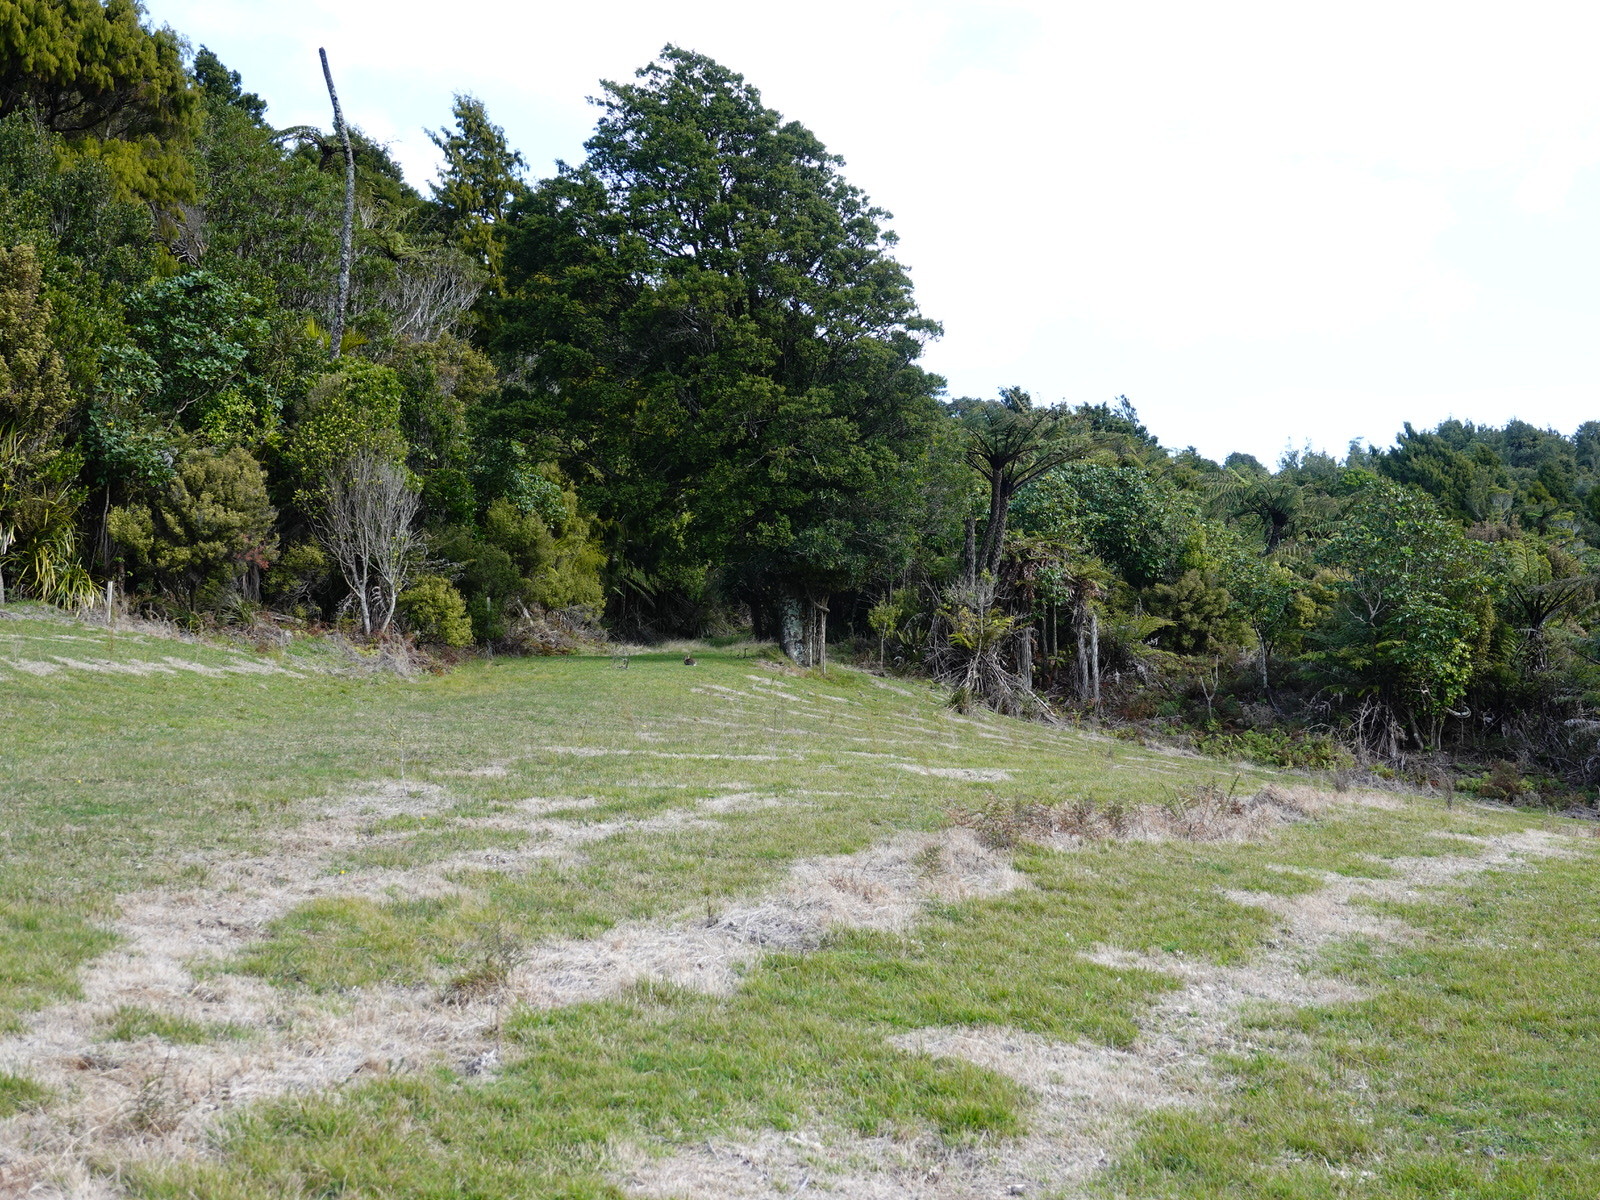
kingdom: Animalia
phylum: Chordata
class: Mammalia
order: Lagomorpha
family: Leporidae
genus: Oryctolagus
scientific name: Oryctolagus cuniculus
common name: European rabbit
